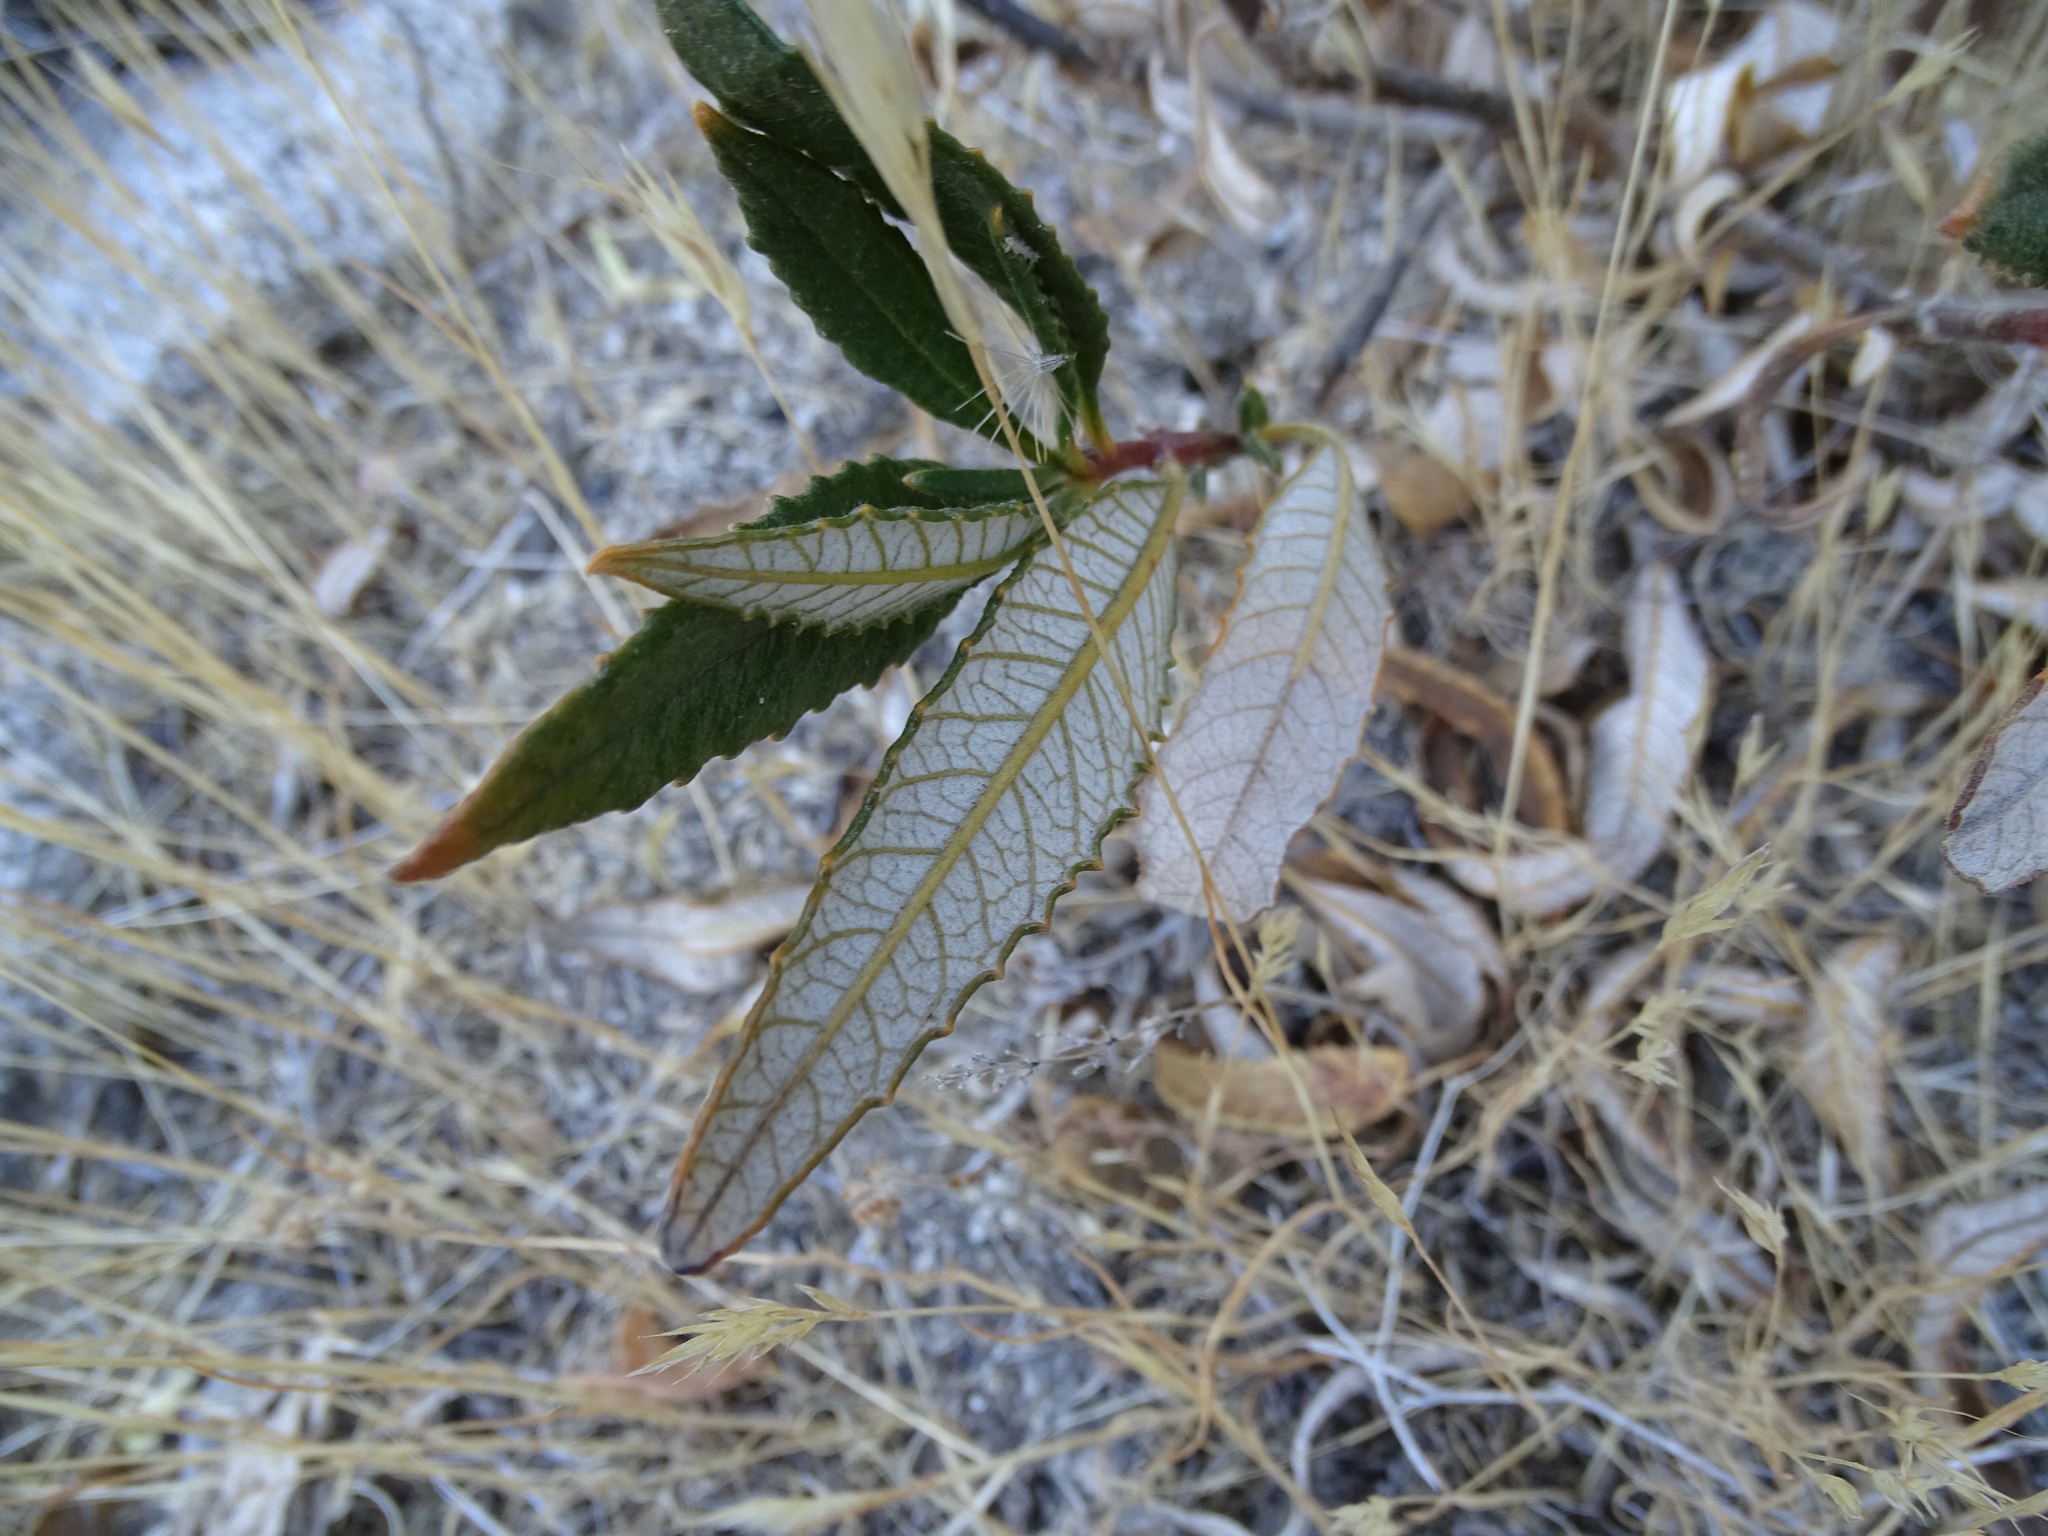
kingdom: Plantae
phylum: Tracheophyta
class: Magnoliopsida
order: Boraginales
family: Namaceae
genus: Eriodictyon
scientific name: Eriodictyon trichocalyx
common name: Hairy yerba-santa
